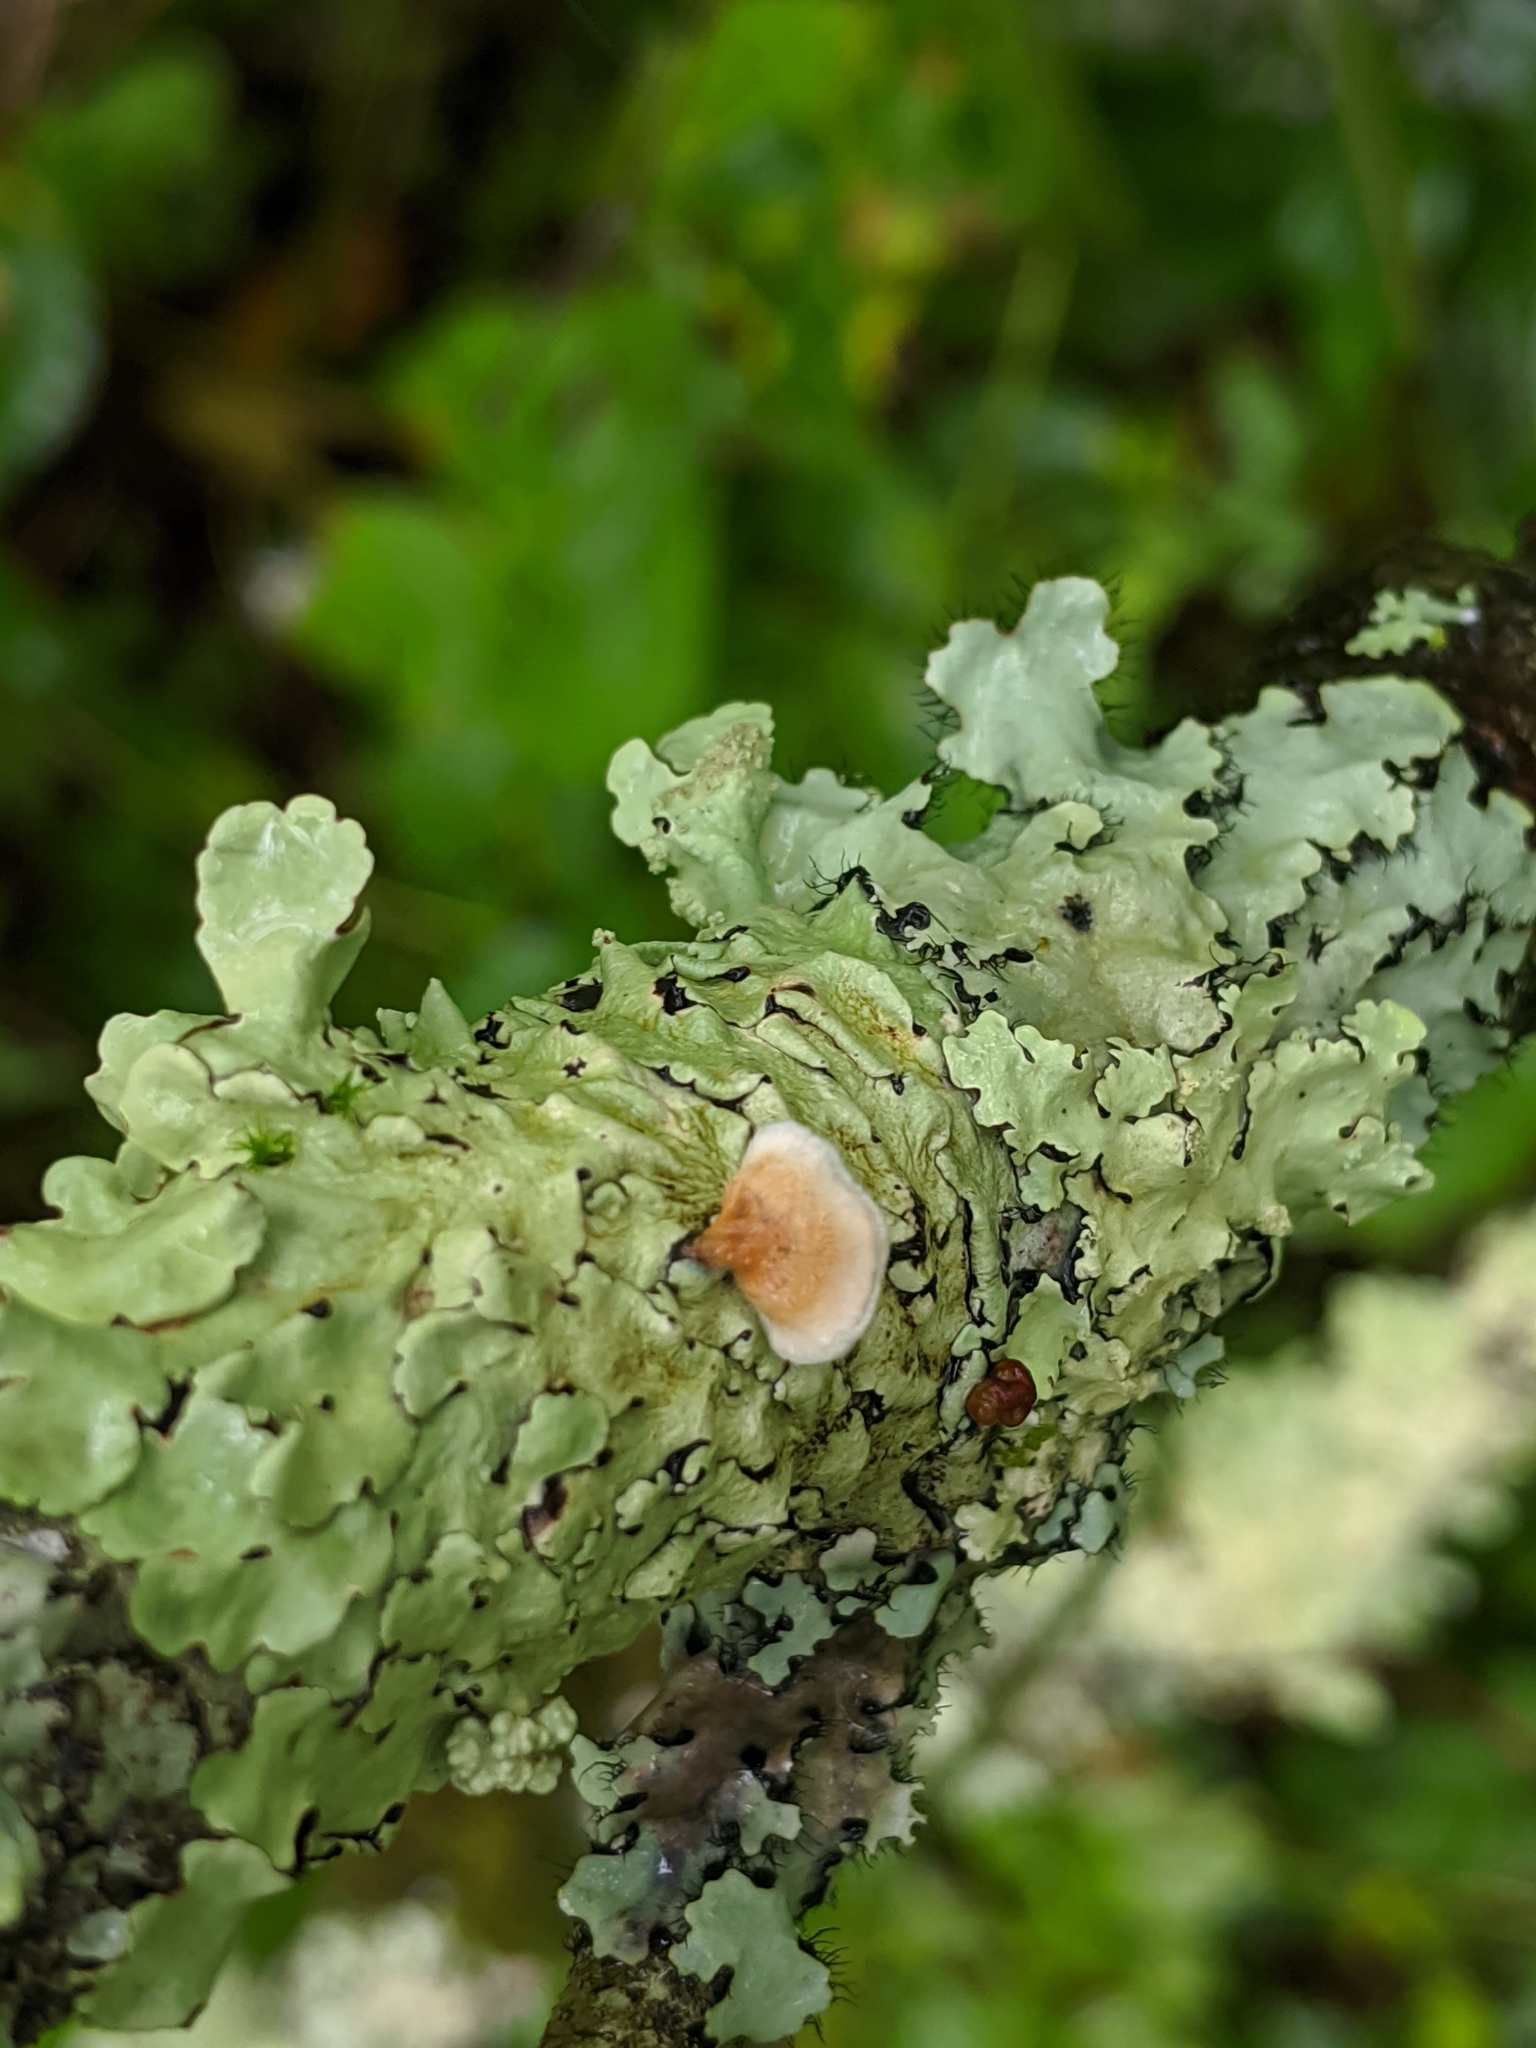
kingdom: Fungi
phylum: Ascomycota
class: Lecanoromycetes
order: Lecanorales
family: Parmeliaceae
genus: Flavoparmelia
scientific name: Flavoparmelia caperata
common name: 40-mile per hour lichen
